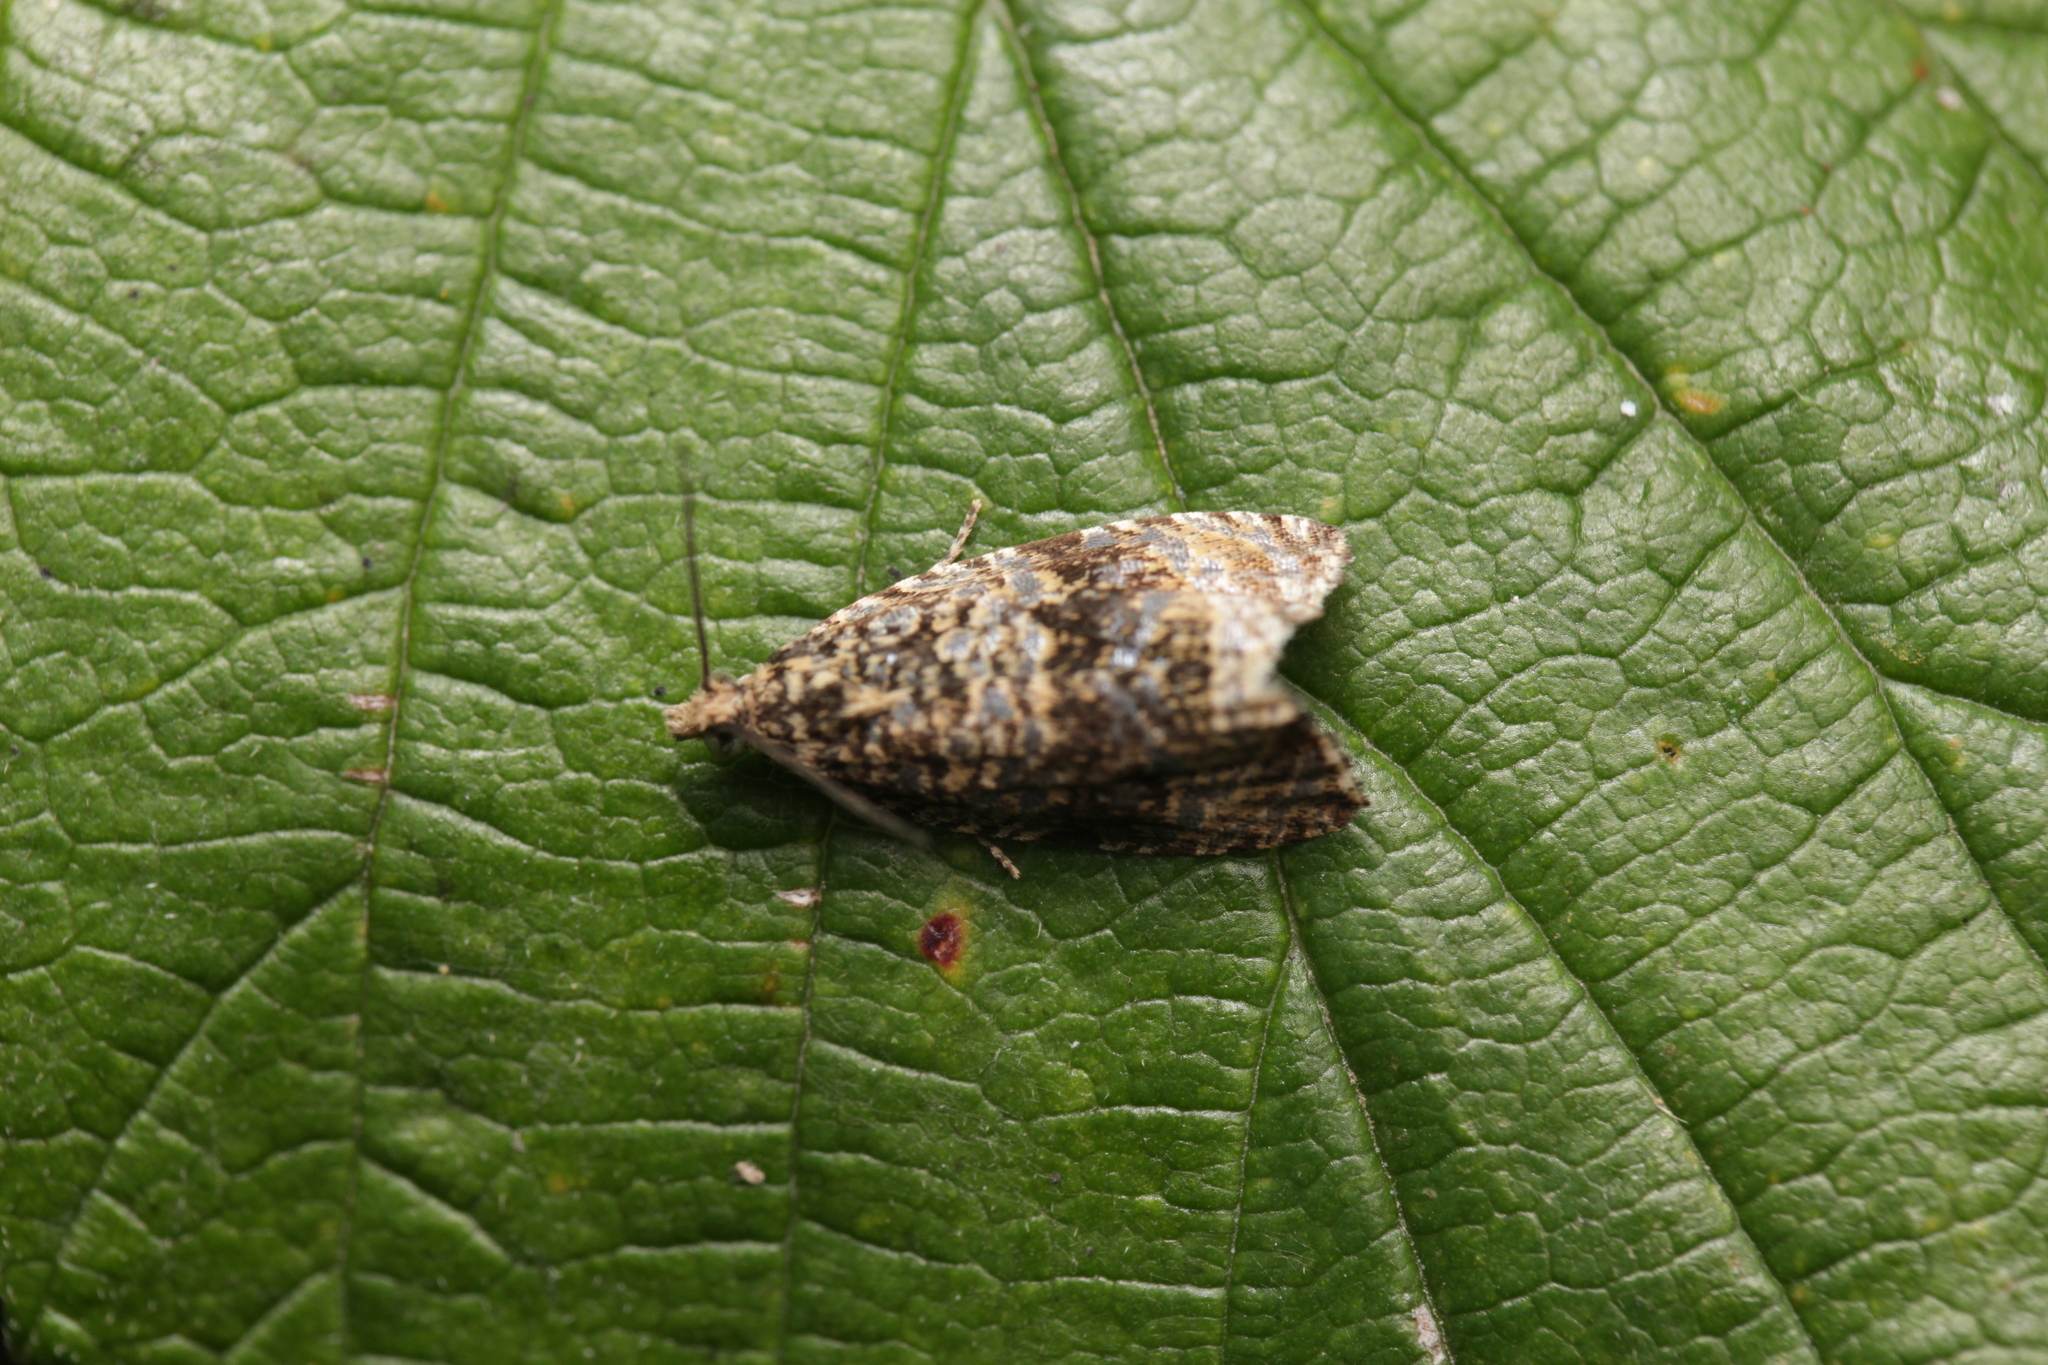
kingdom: Animalia
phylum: Arthropoda
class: Insecta
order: Lepidoptera
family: Tortricidae
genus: Syricoris
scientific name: Syricoris lacunana
